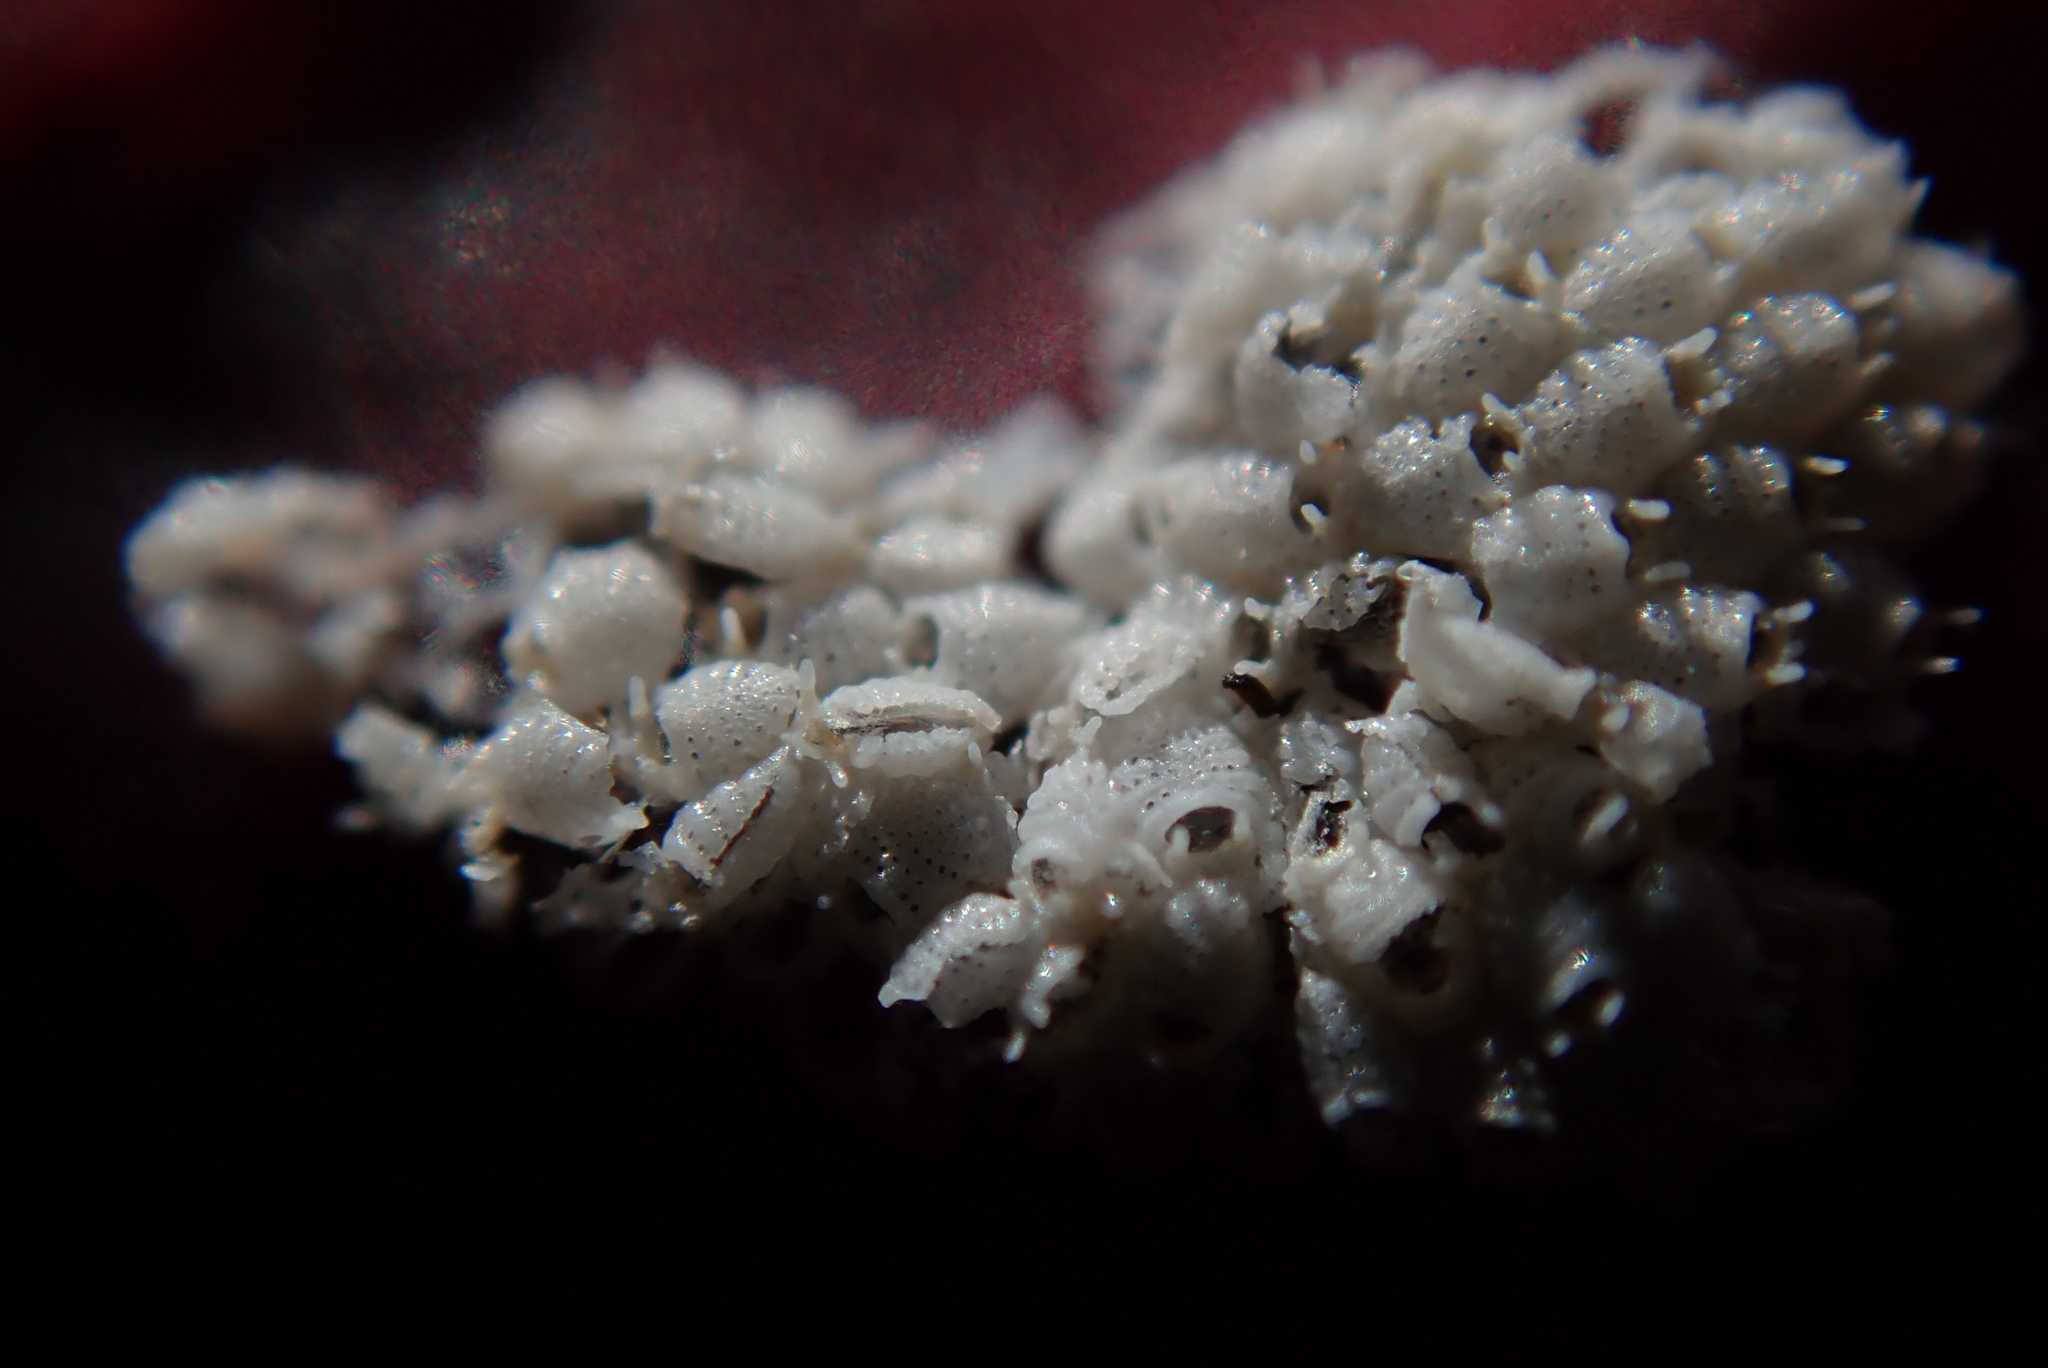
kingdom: Animalia
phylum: Bryozoa
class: Gymnolaemata
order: Cheilostomatida
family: Cribrilinidae
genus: Juxtacribrilina
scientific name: Juxtacribrilina annulata
